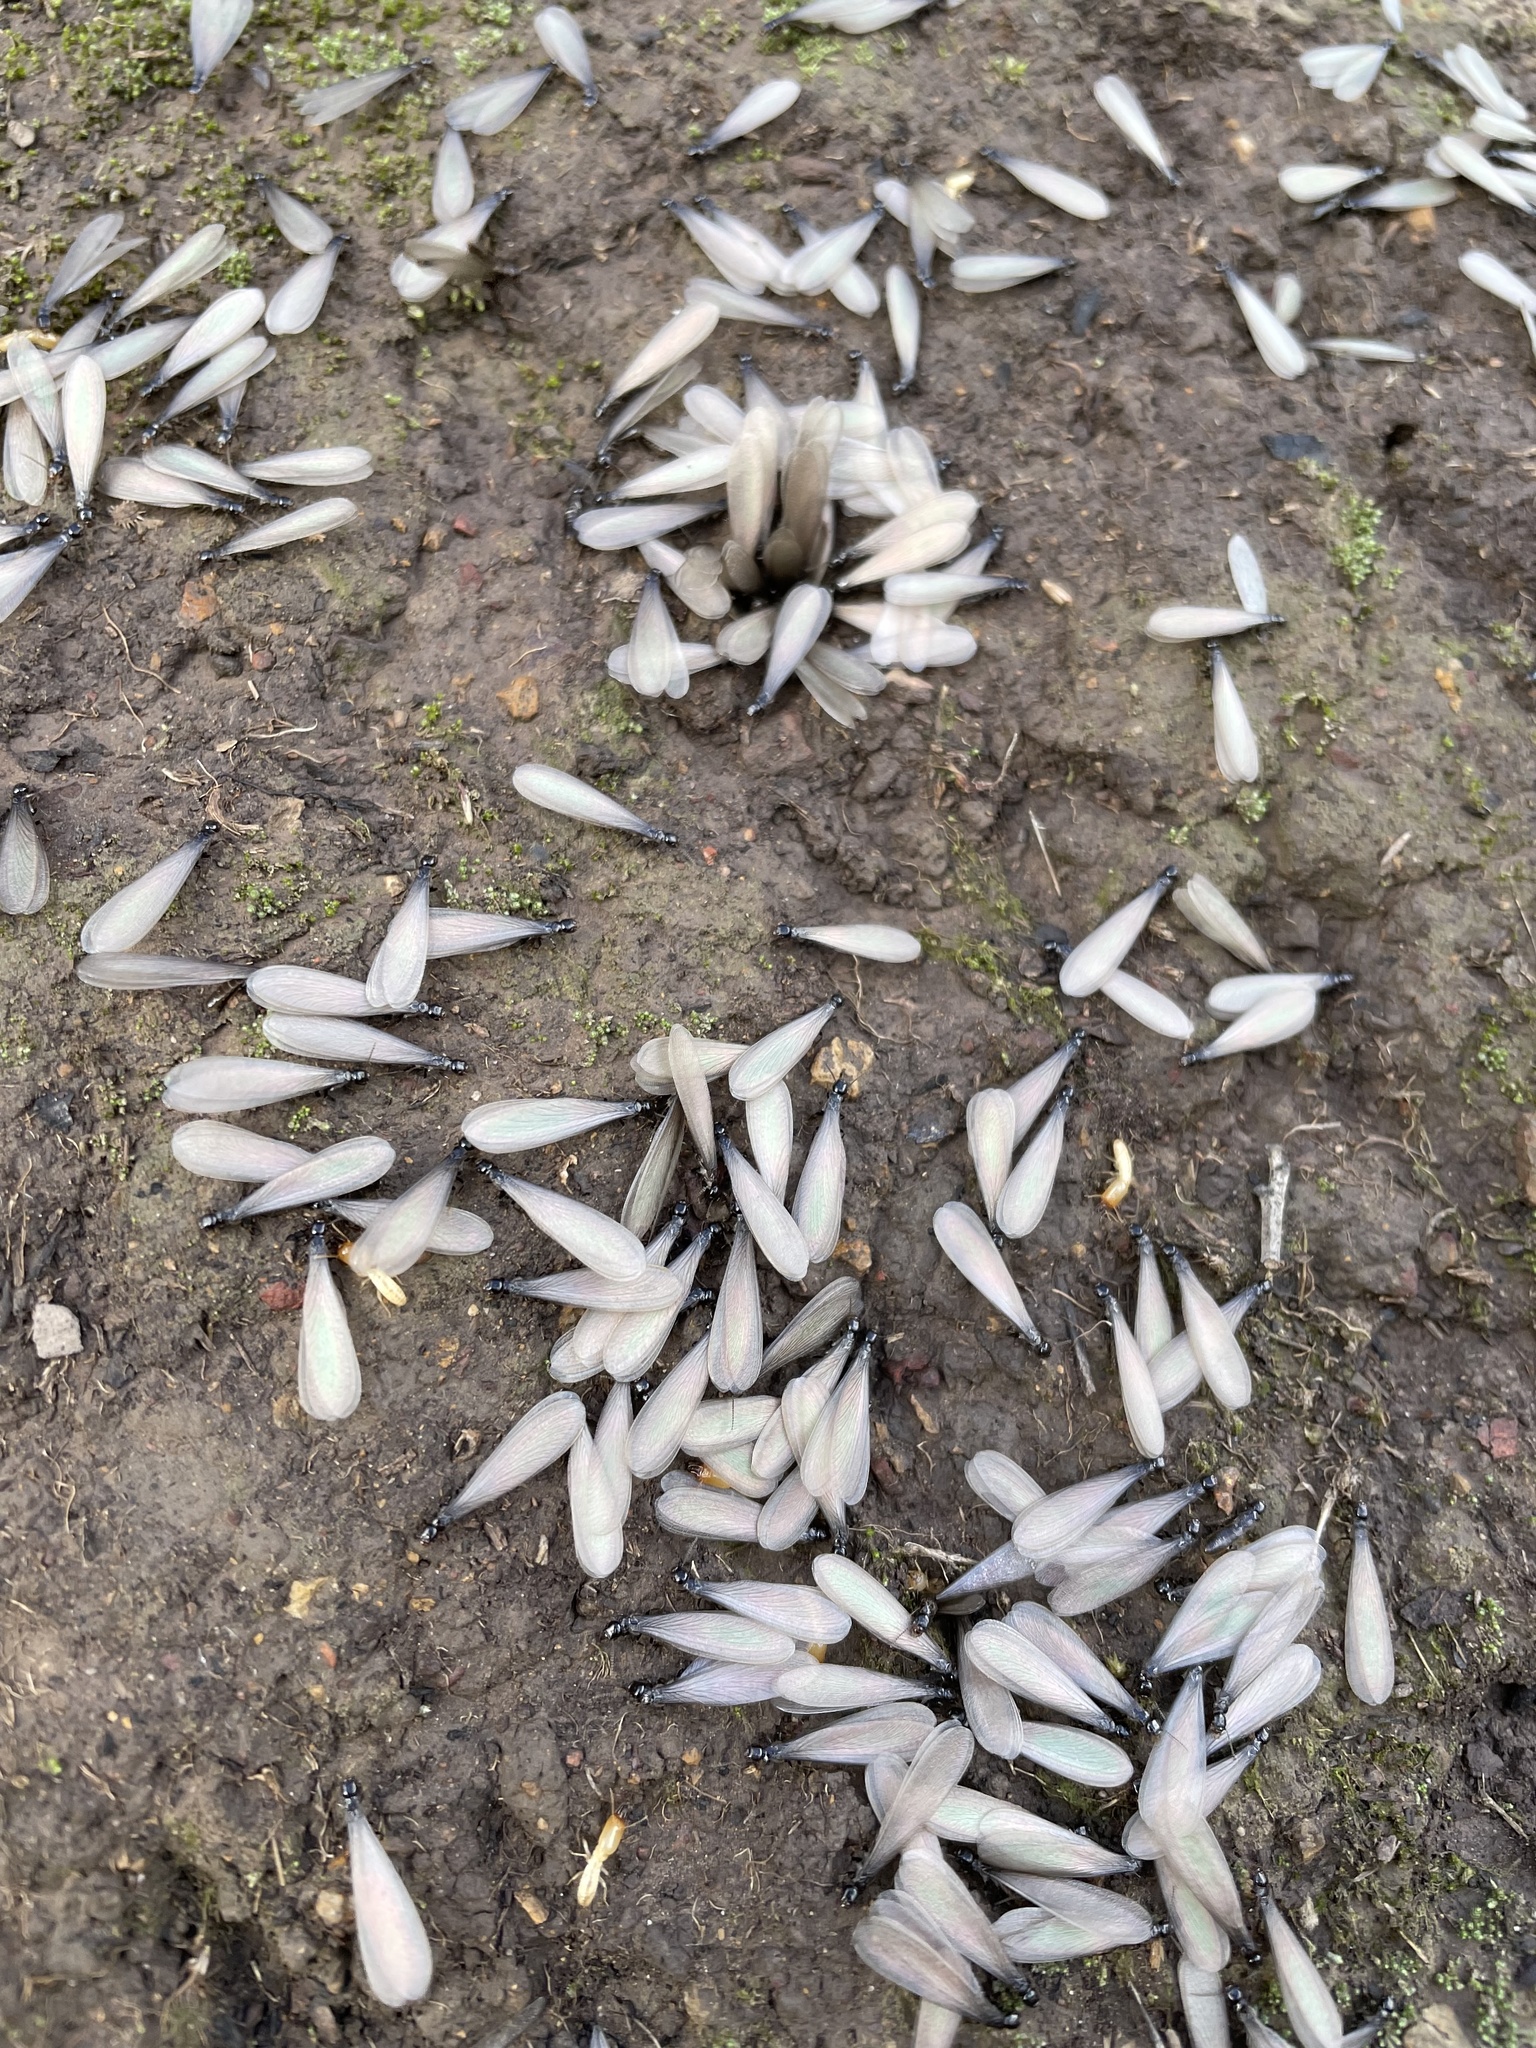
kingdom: Animalia
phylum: Arthropoda
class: Insecta
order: Blattodea
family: Rhinotermitidae
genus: Reticulitermes
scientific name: Reticulitermes hesperus
